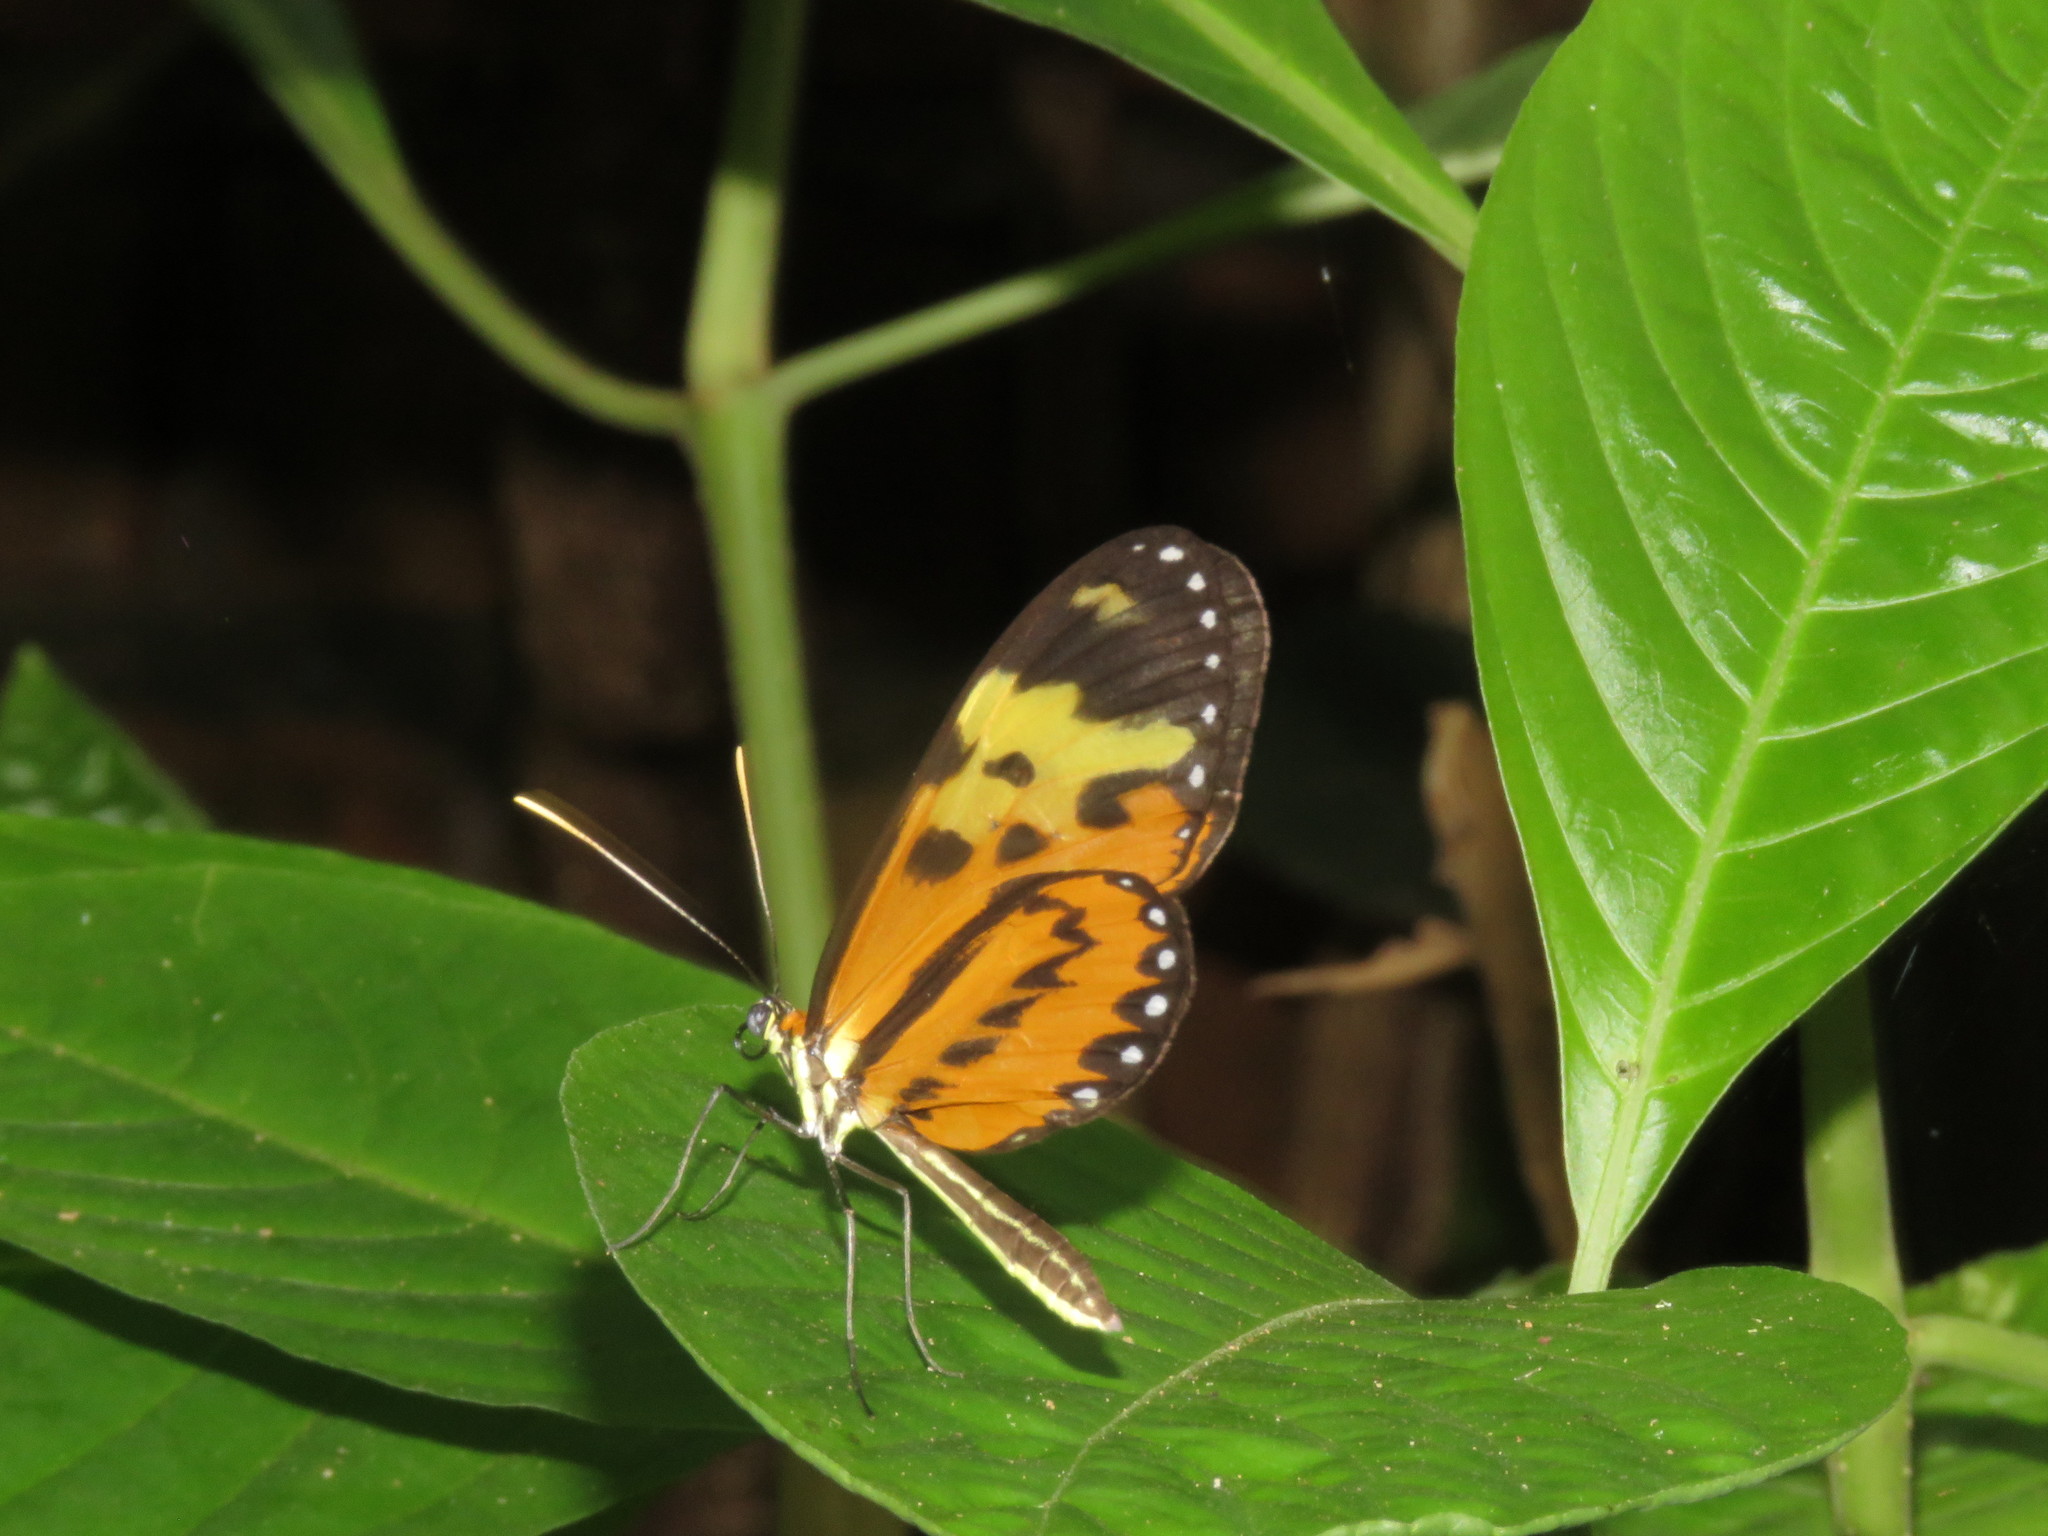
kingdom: Animalia
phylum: Arthropoda
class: Insecta
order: Lepidoptera
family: Nymphalidae
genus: Mechanitis
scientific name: Mechanitis polymnia
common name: Disturbed tigerwing
